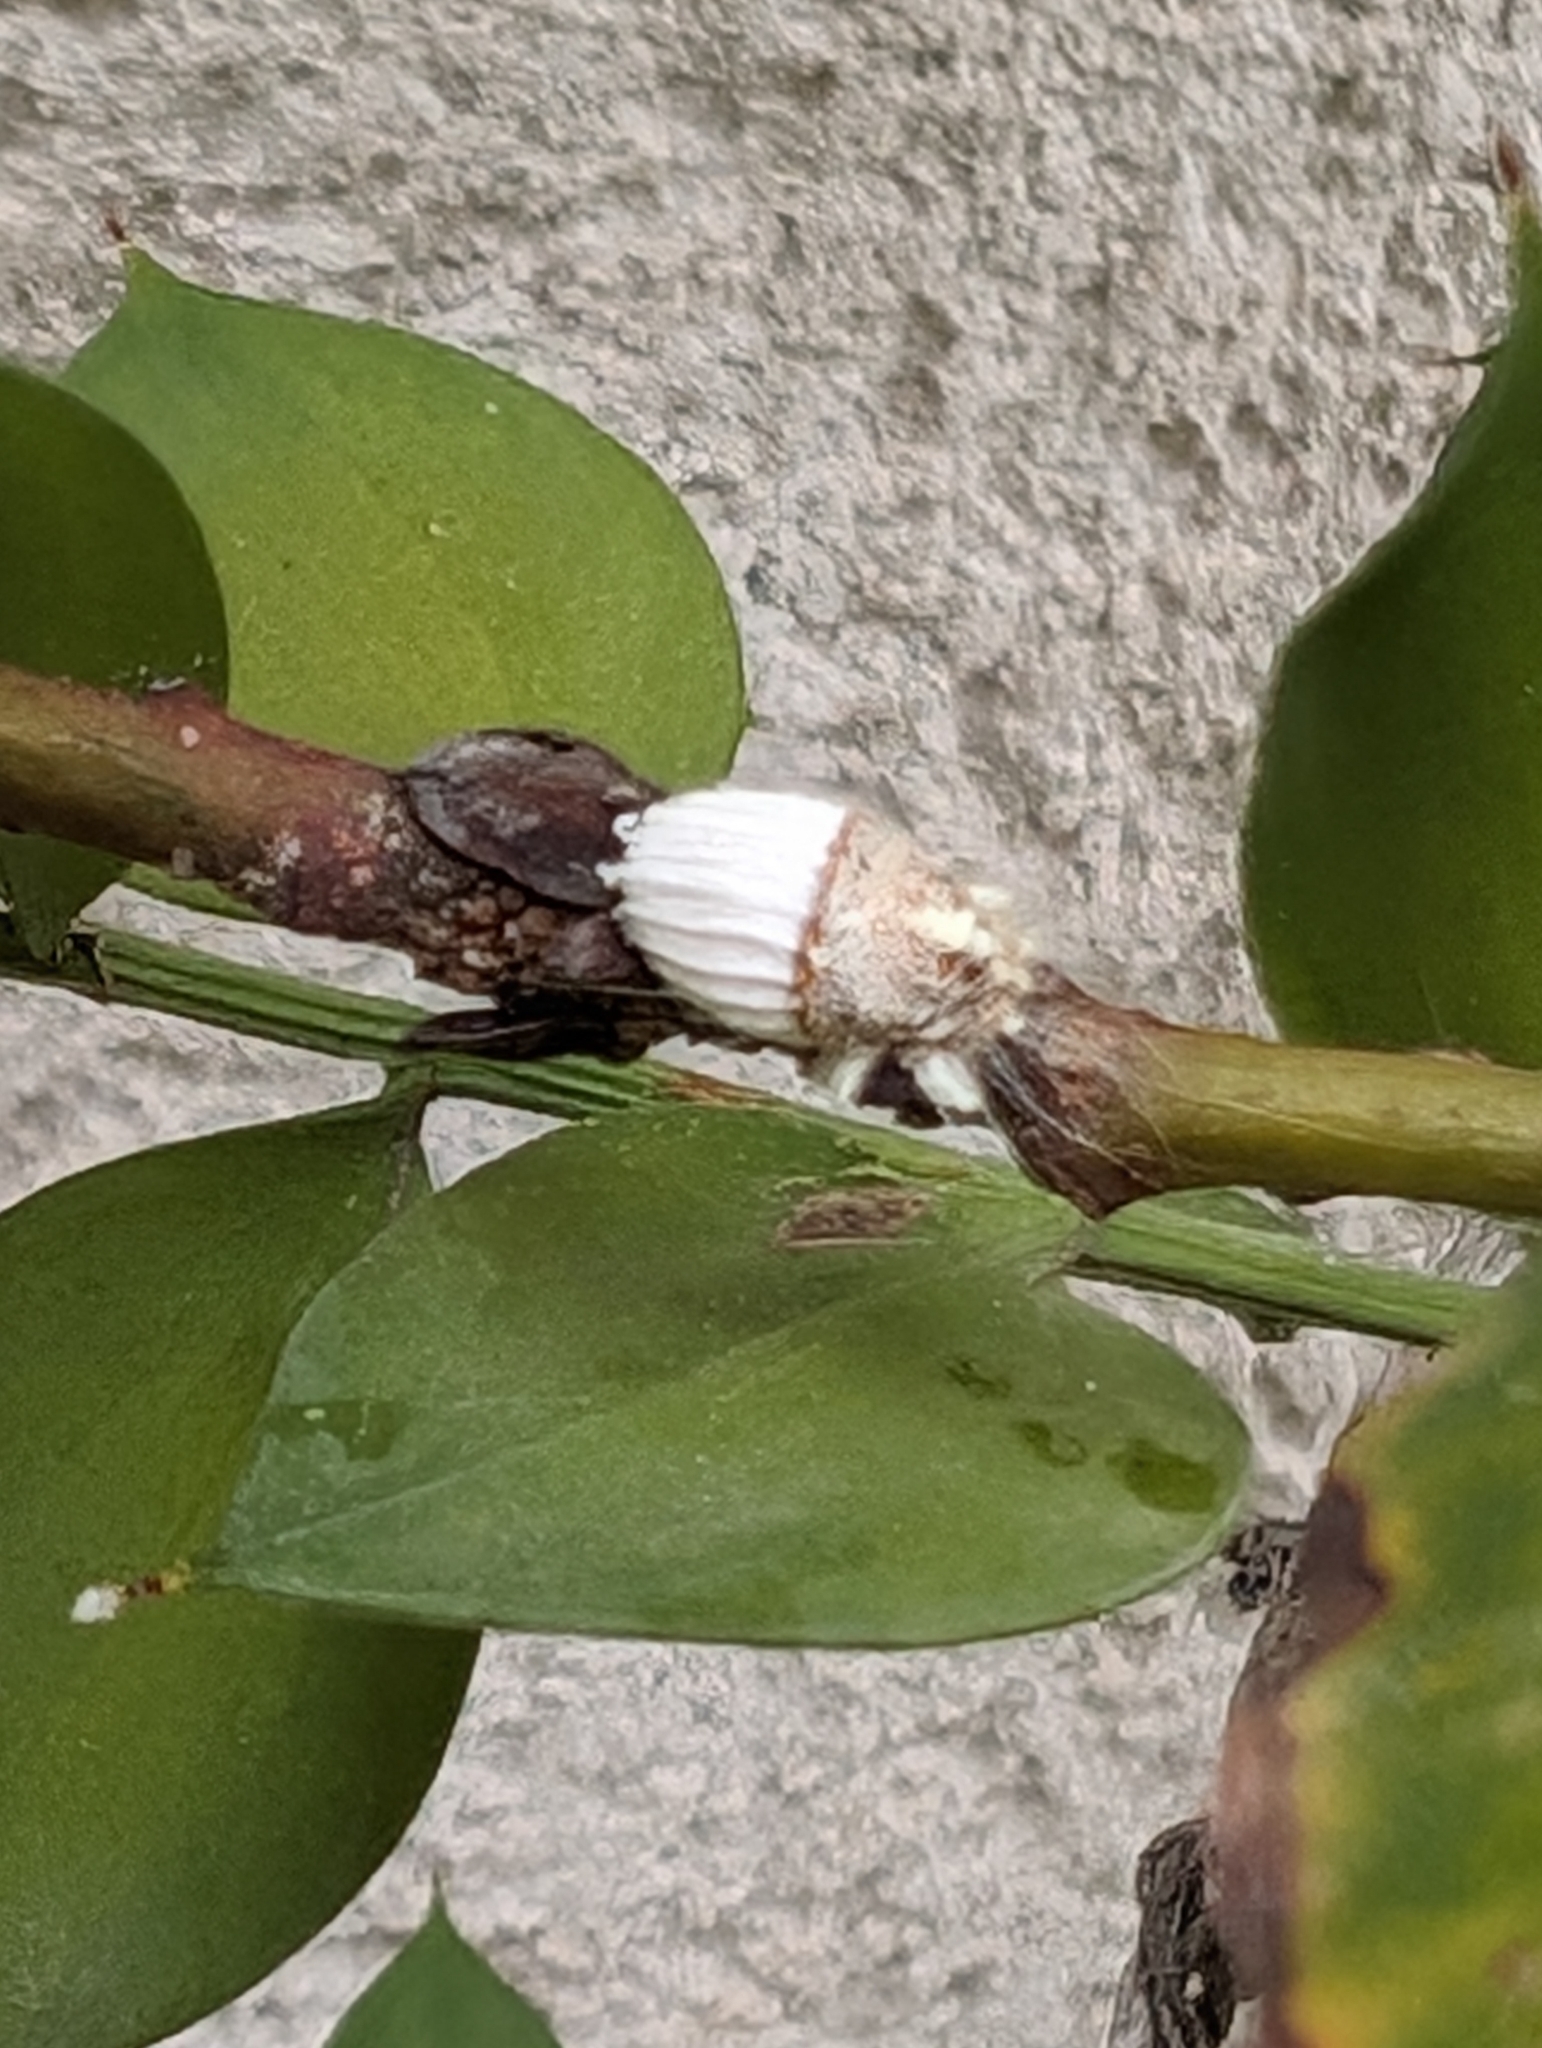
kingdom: Animalia
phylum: Arthropoda
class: Insecta
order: Hemiptera
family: Margarodidae
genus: Icerya
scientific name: Icerya purchasi
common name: Cottony cushion scale
